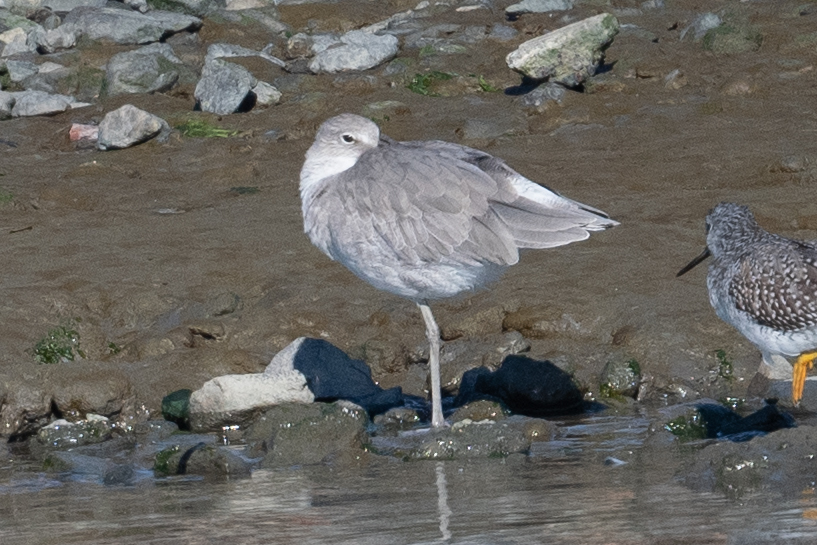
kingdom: Animalia
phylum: Chordata
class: Aves
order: Charadriiformes
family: Scolopacidae
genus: Tringa
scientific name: Tringa semipalmata
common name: Willet
